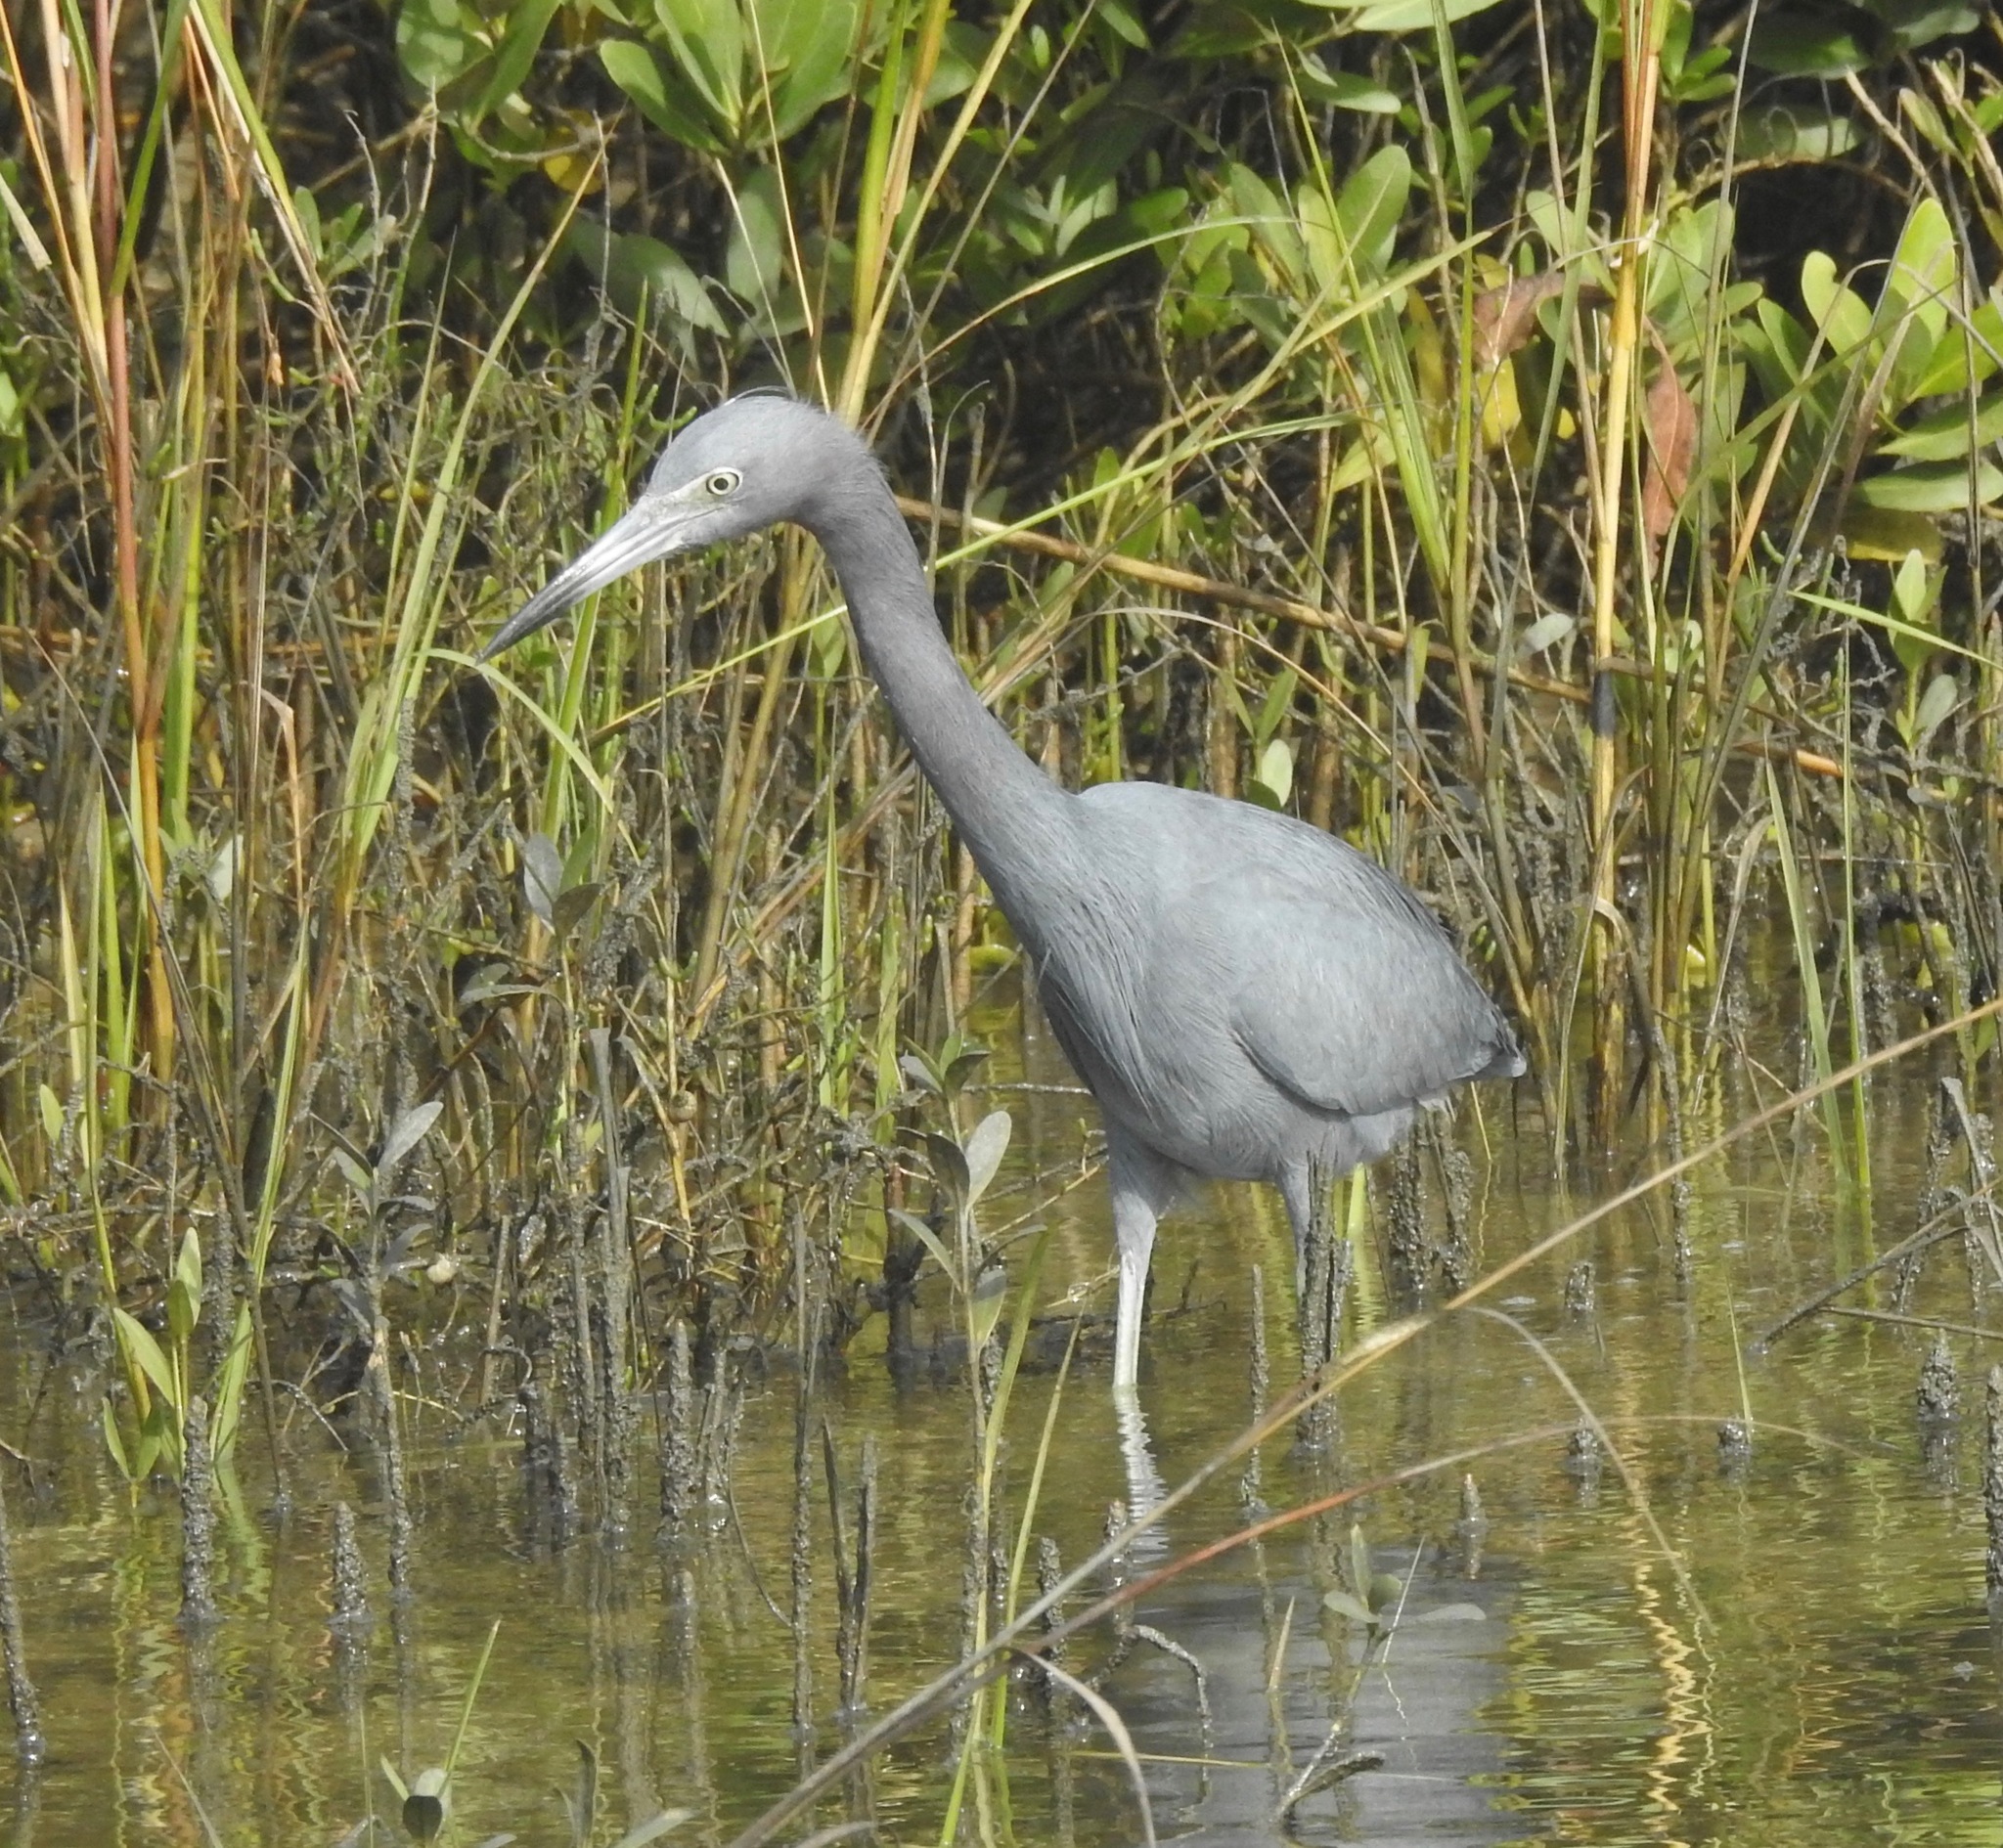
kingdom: Animalia
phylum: Chordata
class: Aves
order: Pelecaniformes
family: Ardeidae
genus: Egretta
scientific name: Egretta caerulea
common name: Little blue heron
